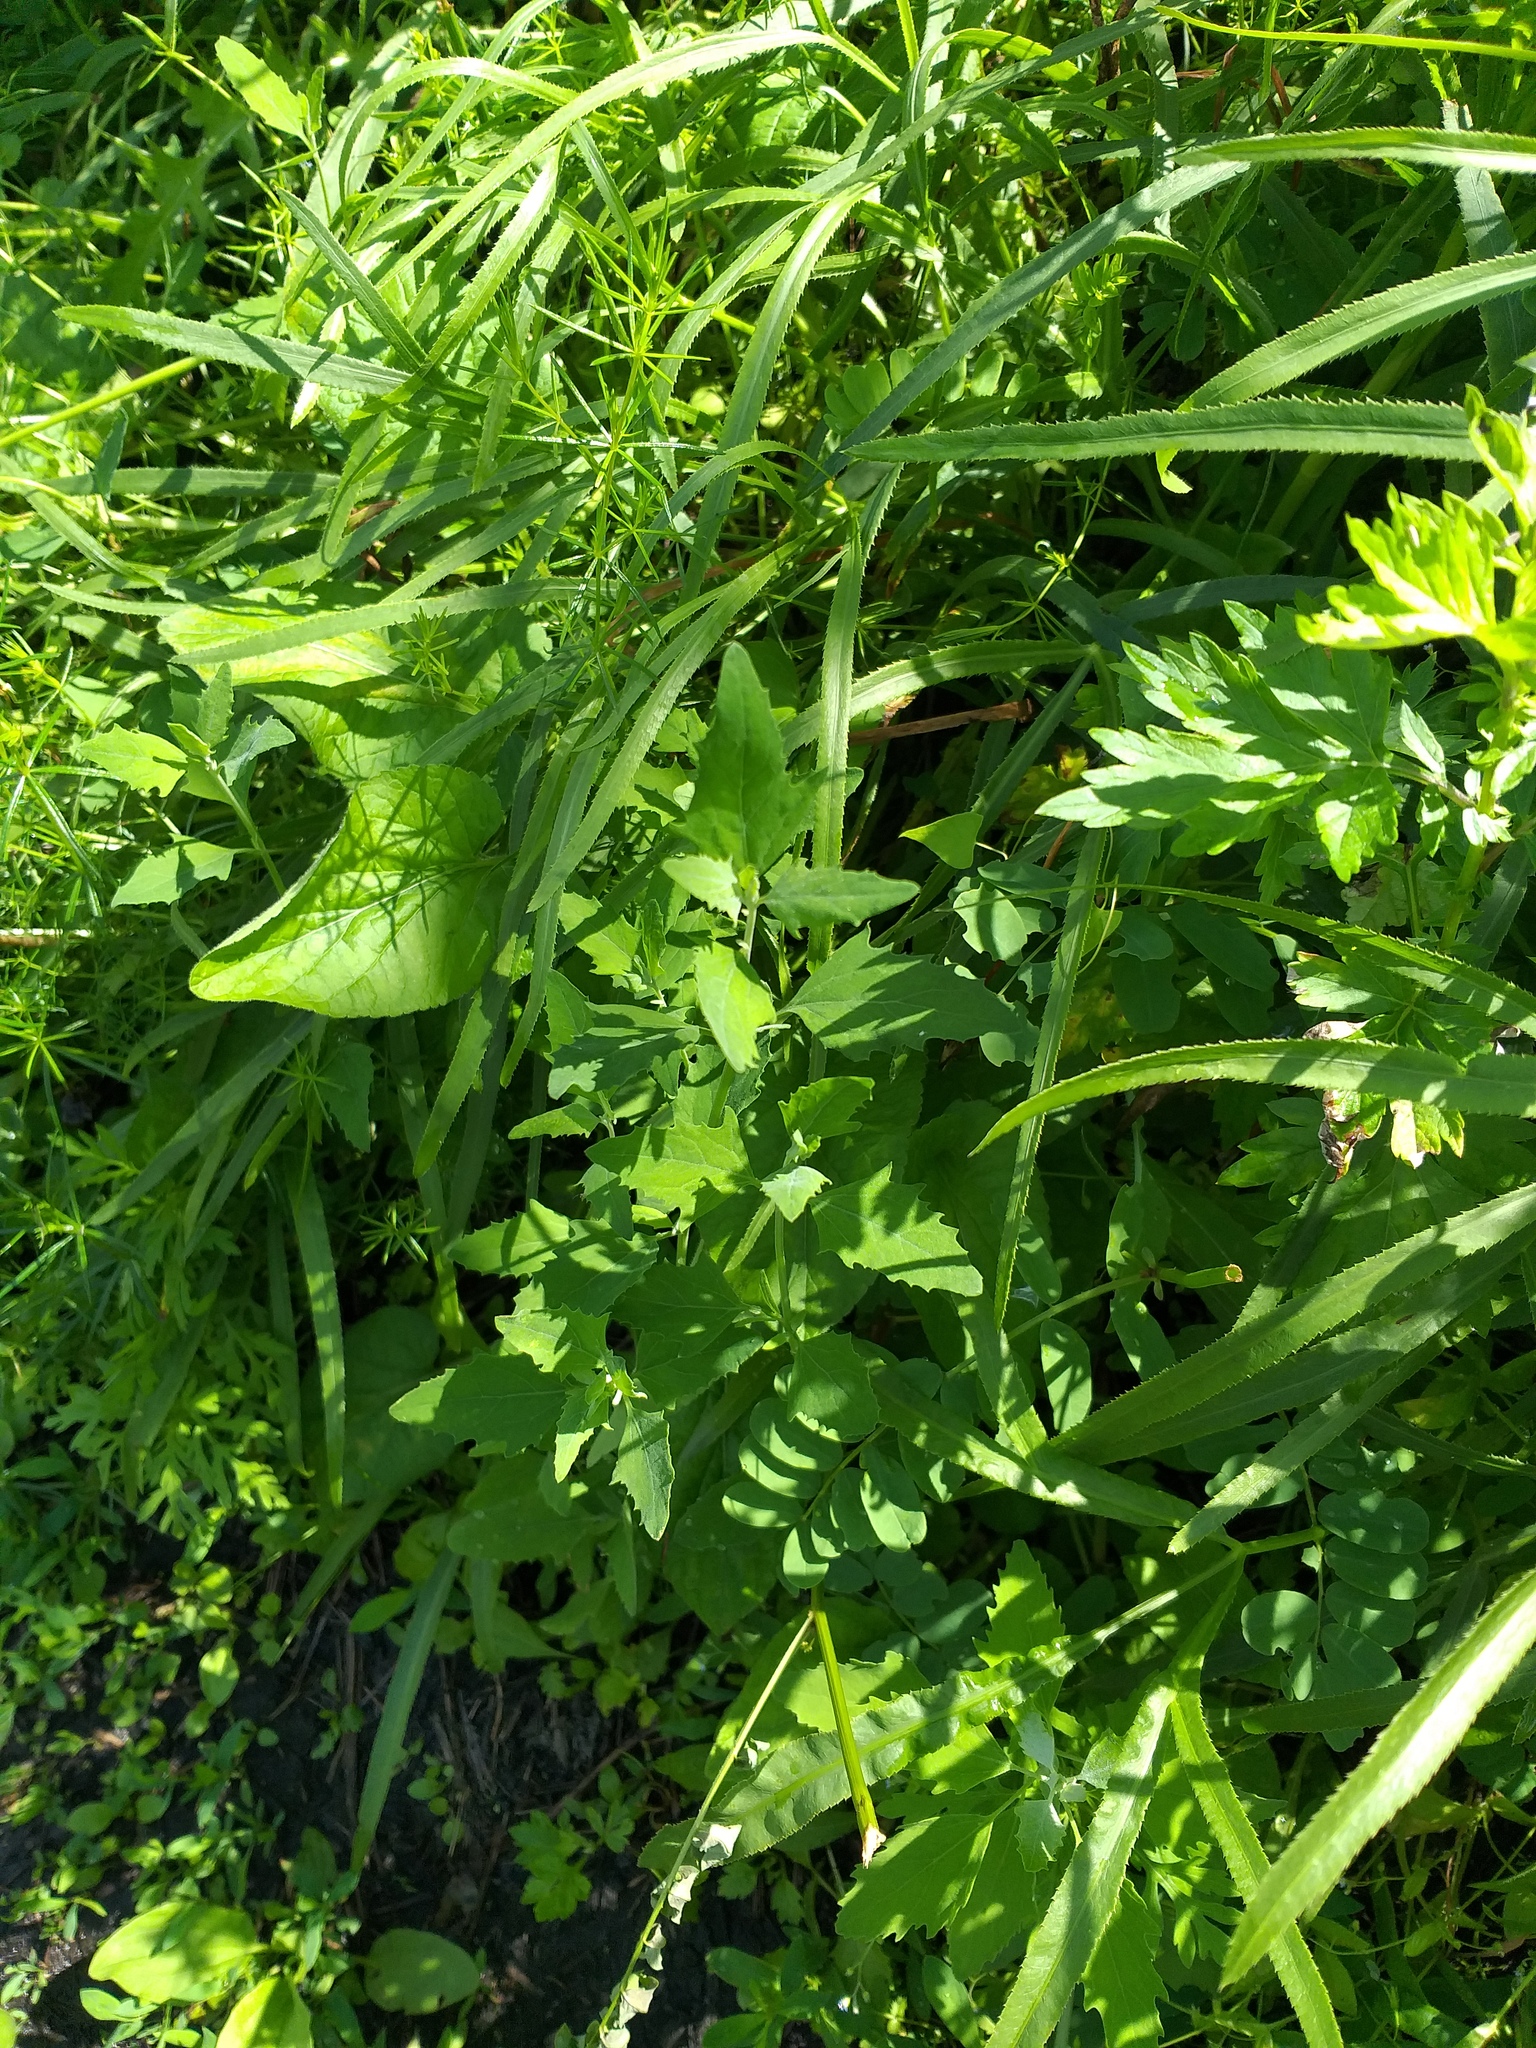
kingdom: Plantae
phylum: Tracheophyta
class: Magnoliopsida
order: Caryophyllales
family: Amaranthaceae
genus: Atriplex
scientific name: Atriplex patula
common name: Common orache
